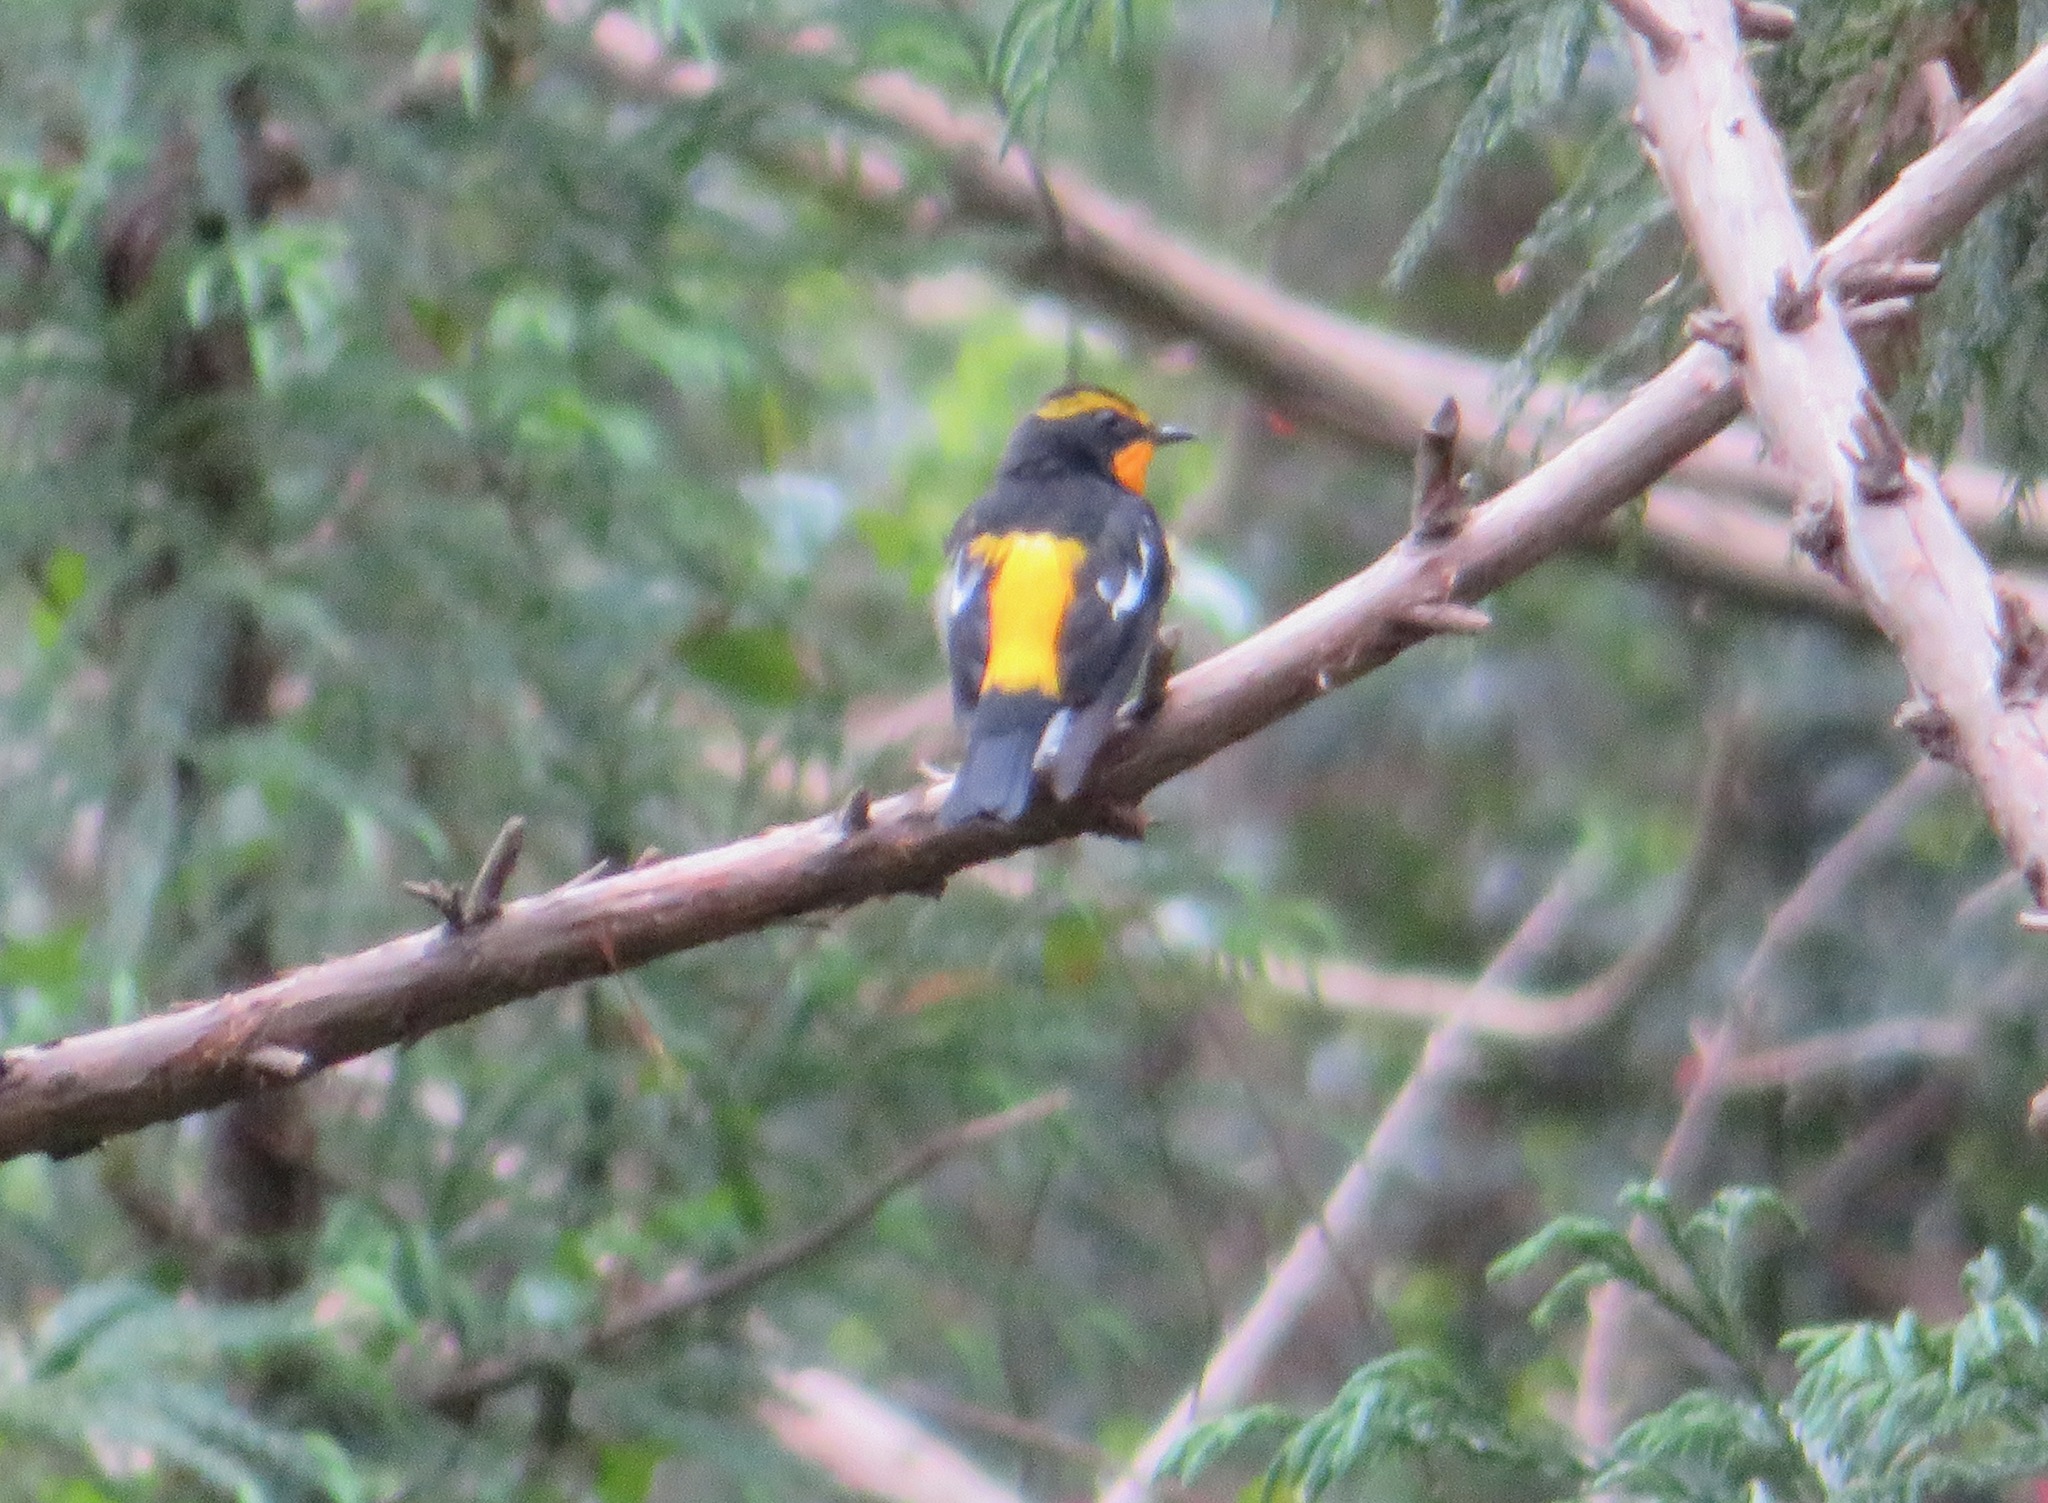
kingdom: Animalia
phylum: Chordata
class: Aves
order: Passeriformes
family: Muscicapidae
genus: Ficedula
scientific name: Ficedula narcissina
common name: Narcissus flycatcher
